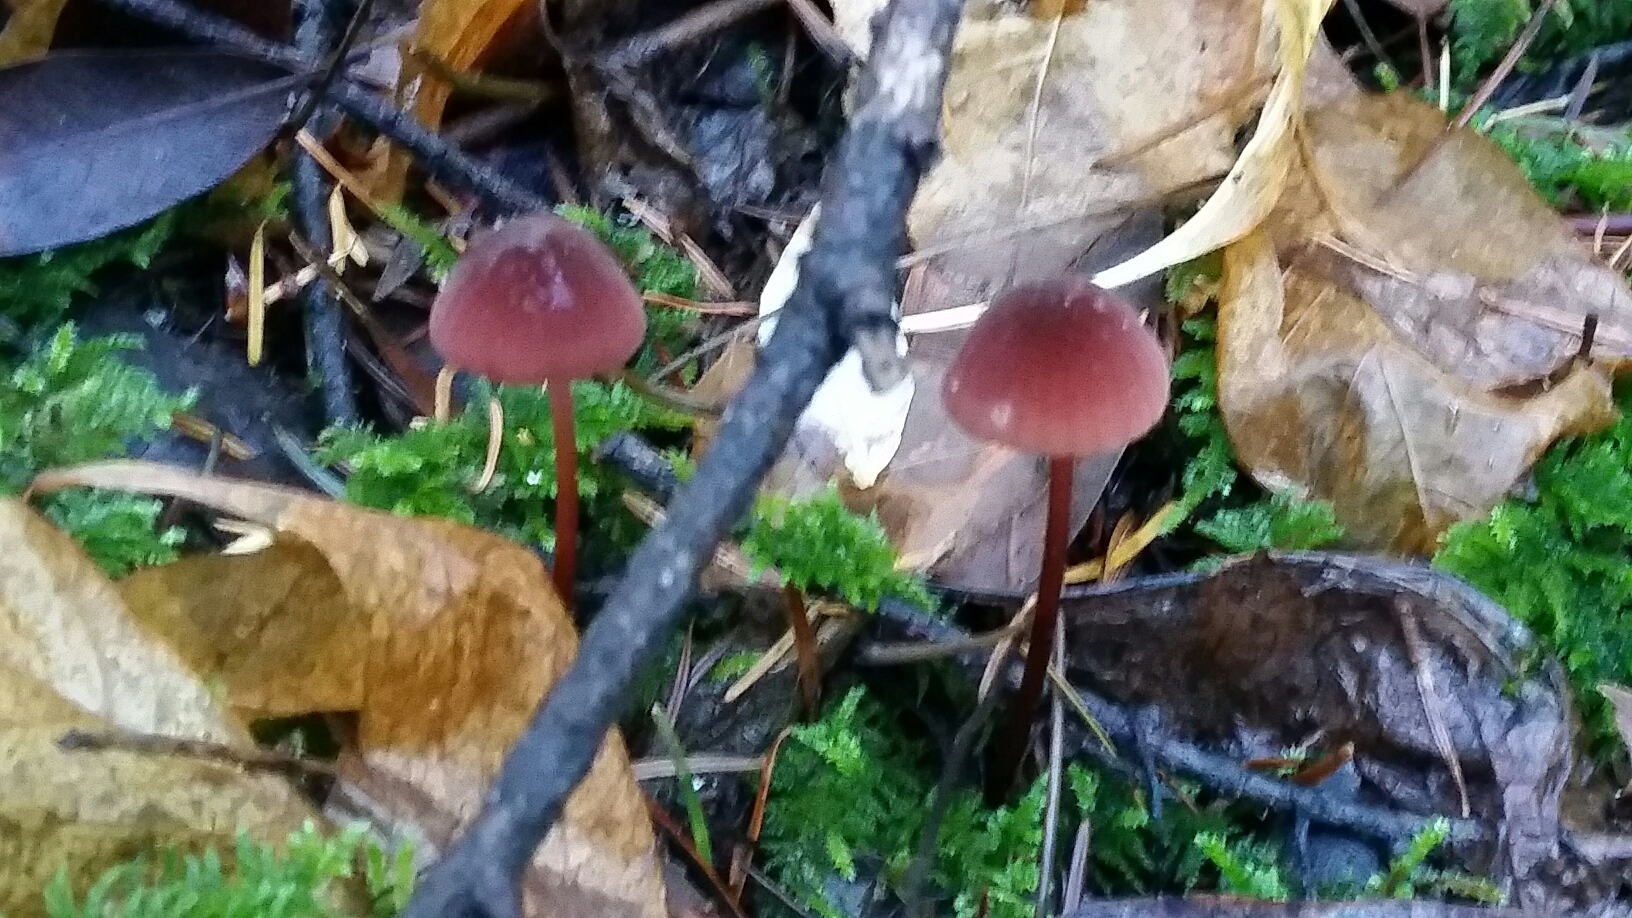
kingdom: Fungi
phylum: Basidiomycota
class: Agaricomycetes
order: Agaricales
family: Marasmiaceae
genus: Marasmius
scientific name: Marasmius plicatulus
